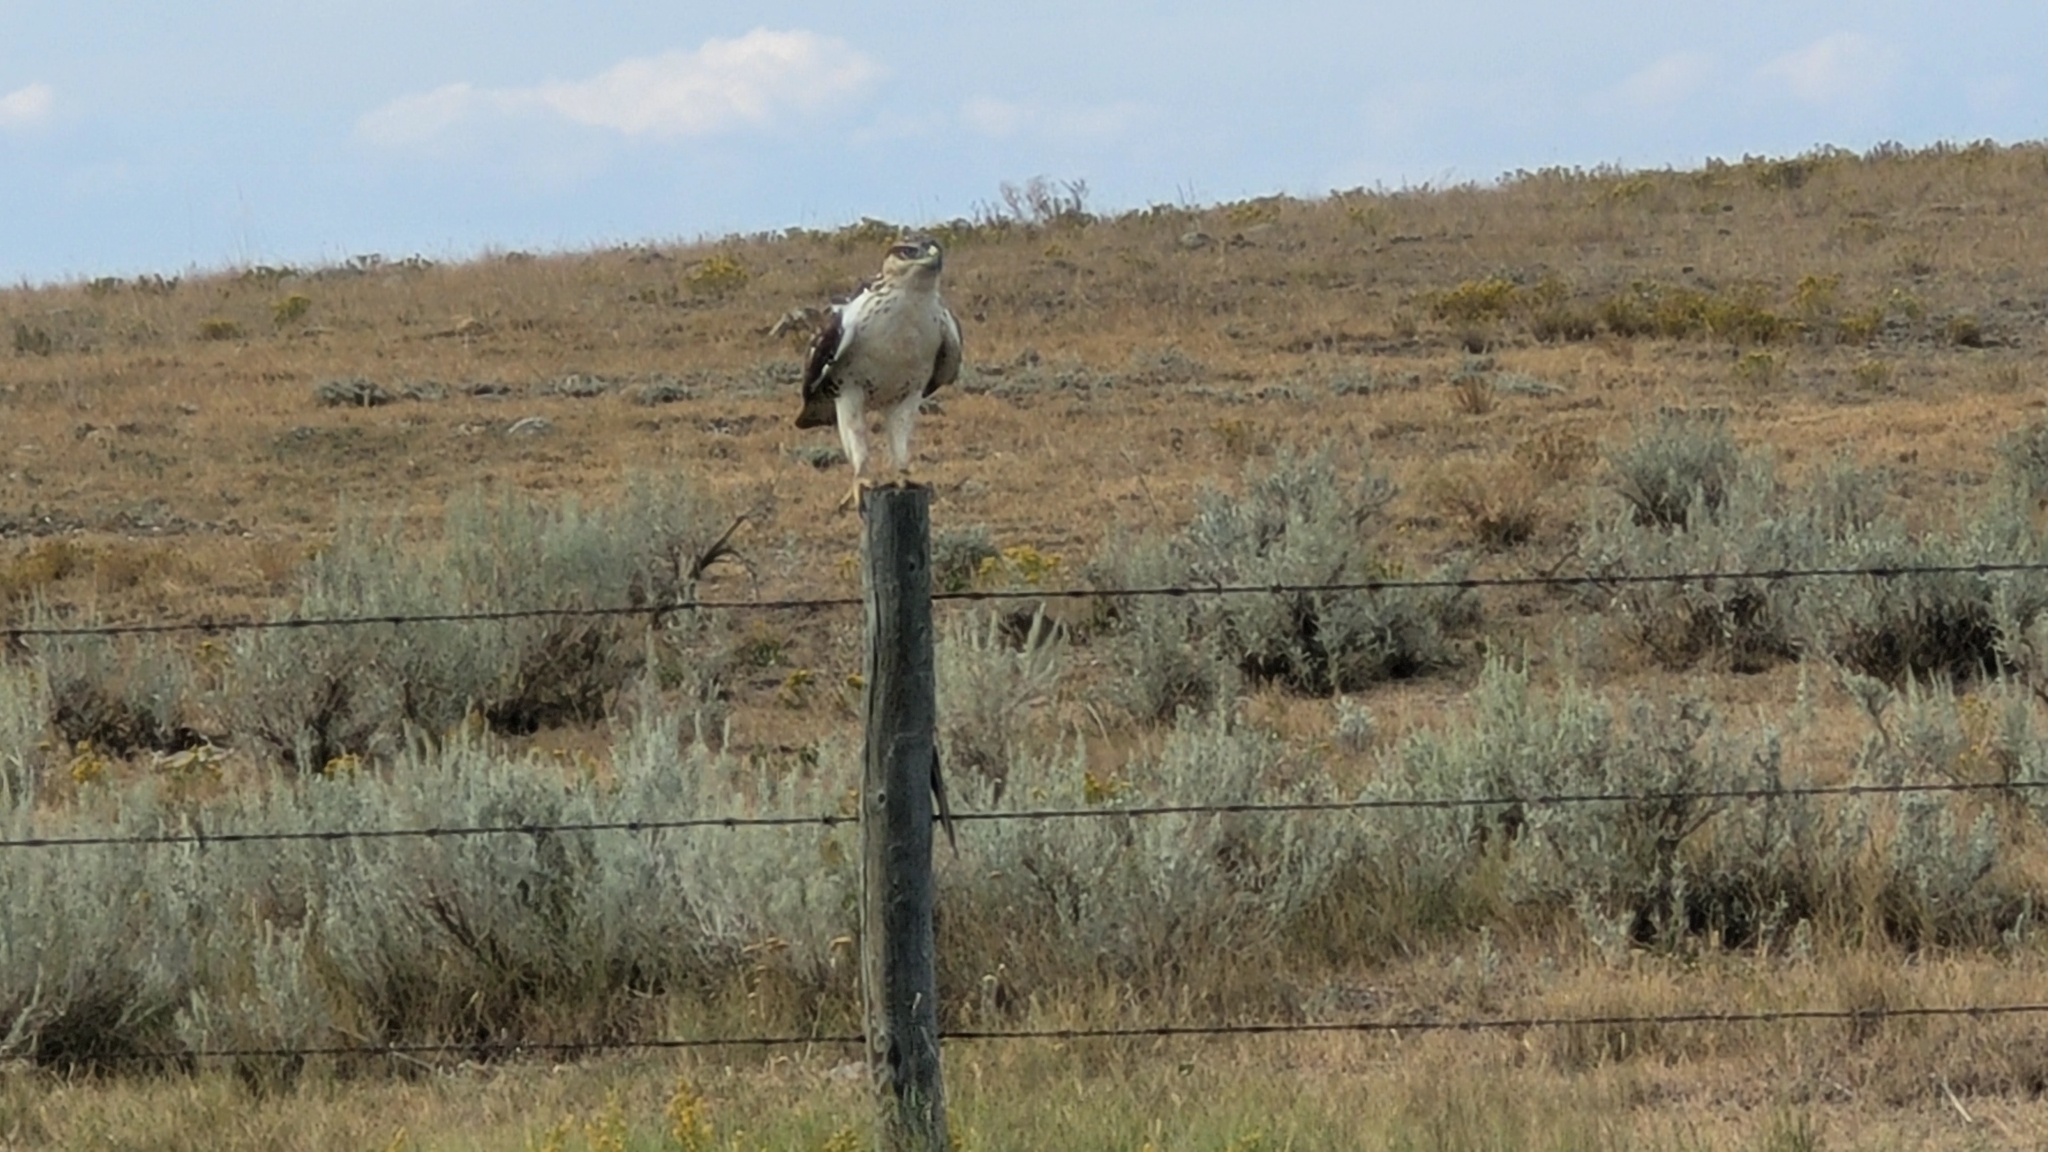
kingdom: Animalia
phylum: Chordata
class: Aves
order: Accipitriformes
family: Accipitridae
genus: Buteo
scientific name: Buteo regalis
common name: Ferruginous hawk
